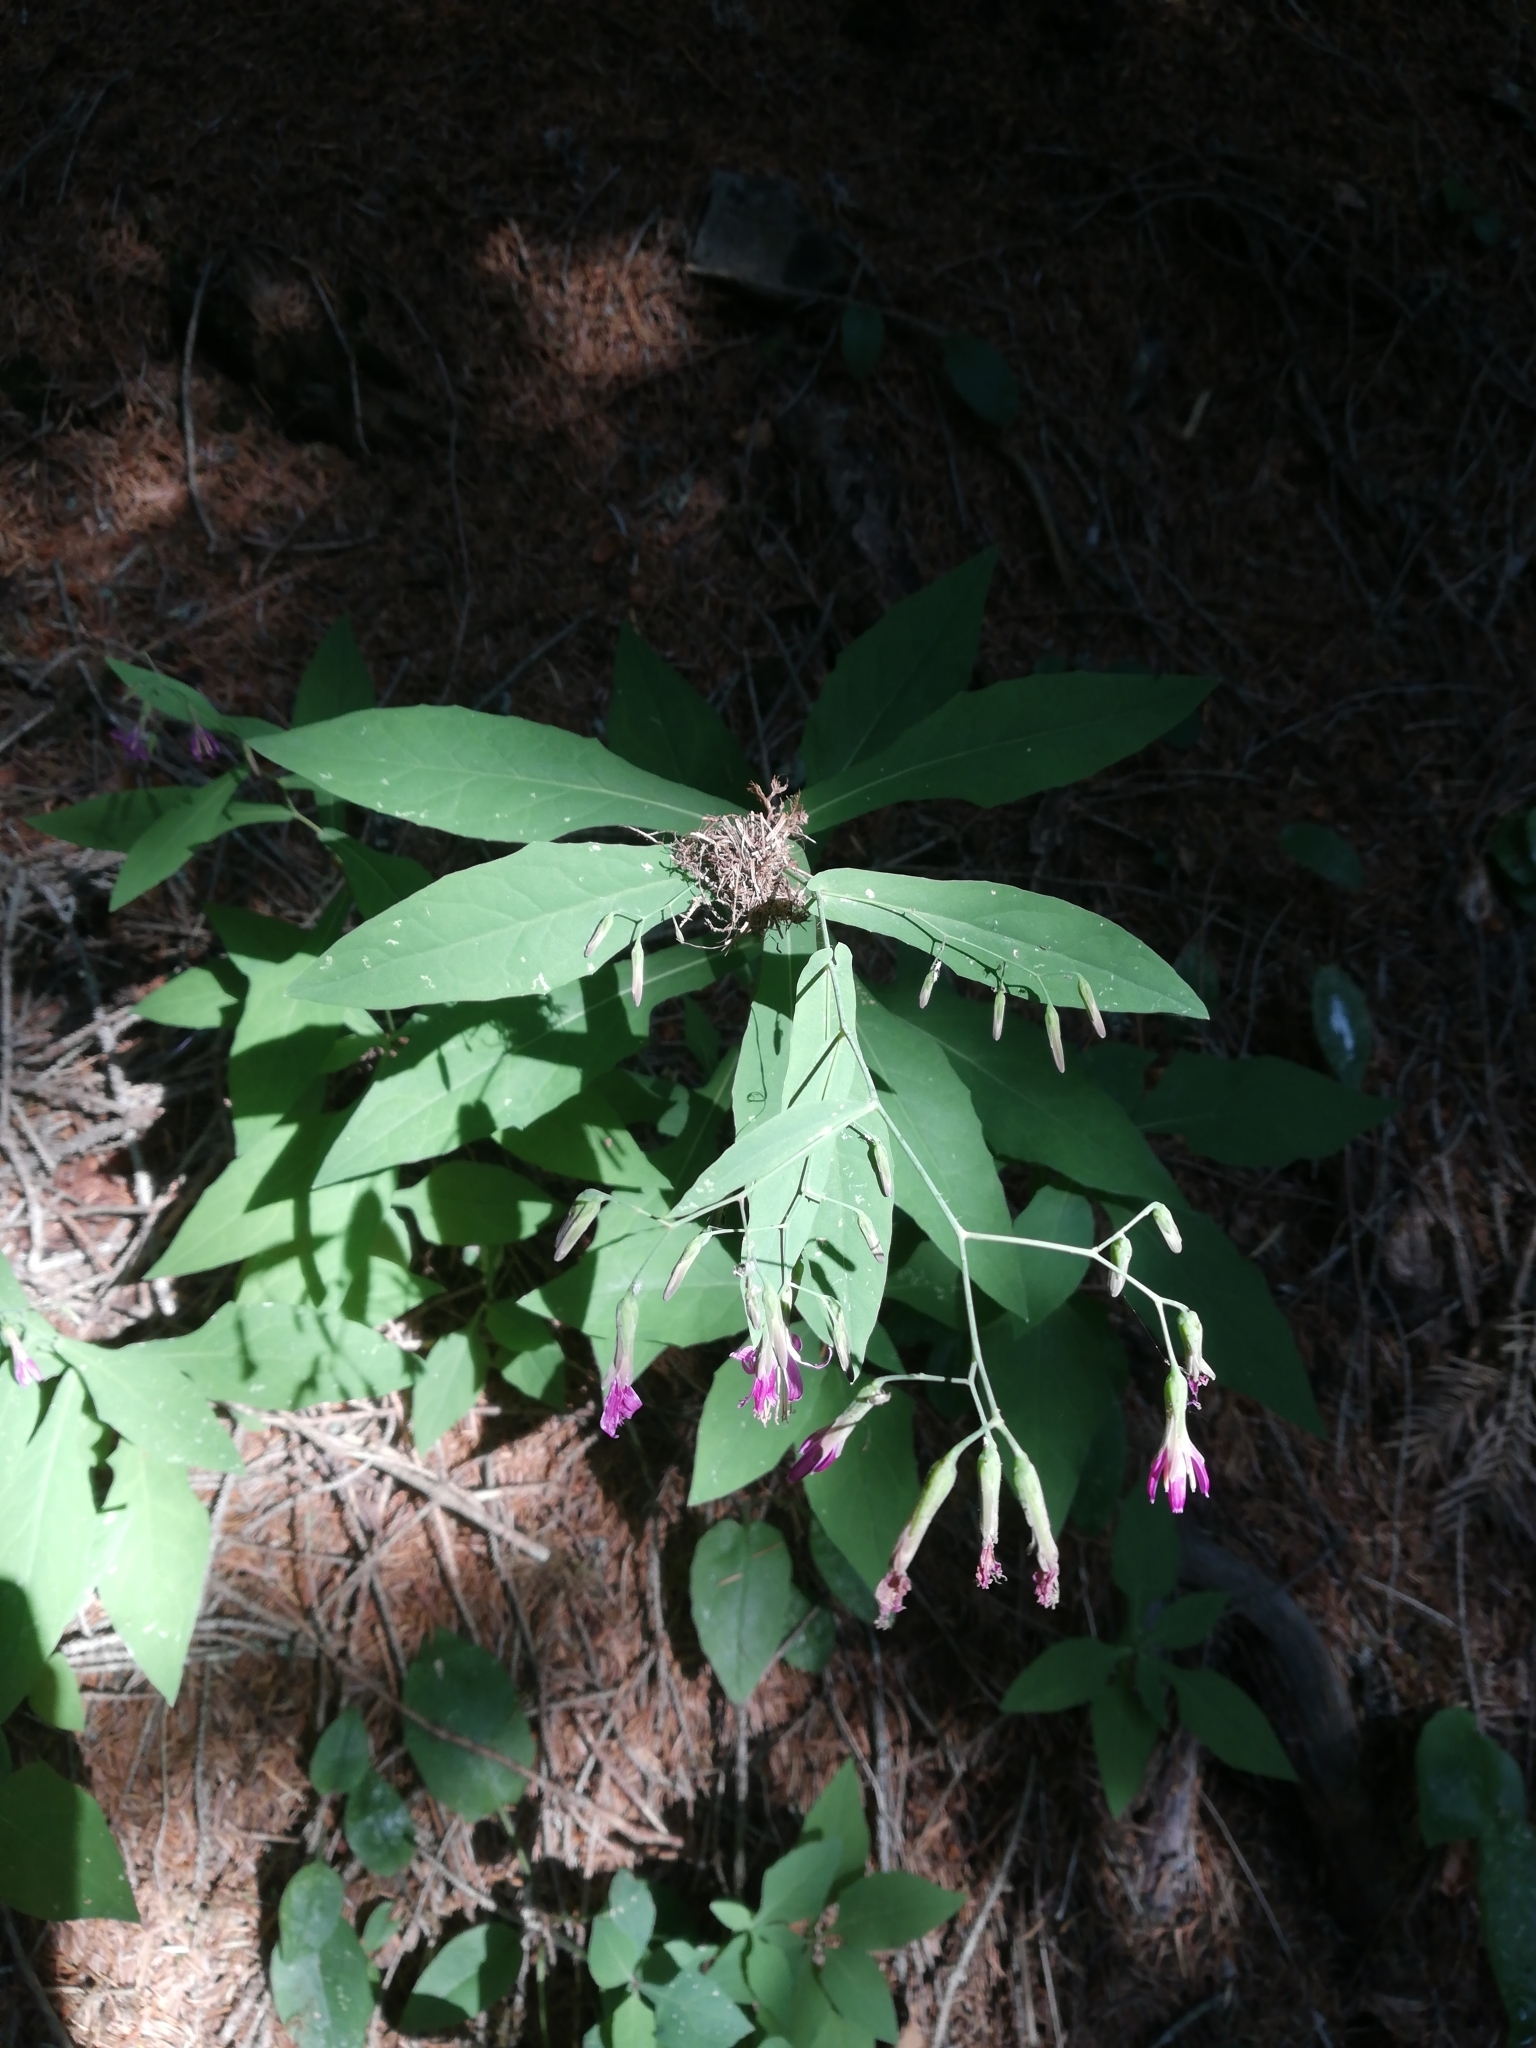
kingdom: Plantae
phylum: Tracheophyta
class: Magnoliopsida
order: Asterales
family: Asteraceae
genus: Prenanthes
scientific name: Prenanthes purpurea
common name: Purple lettuce
